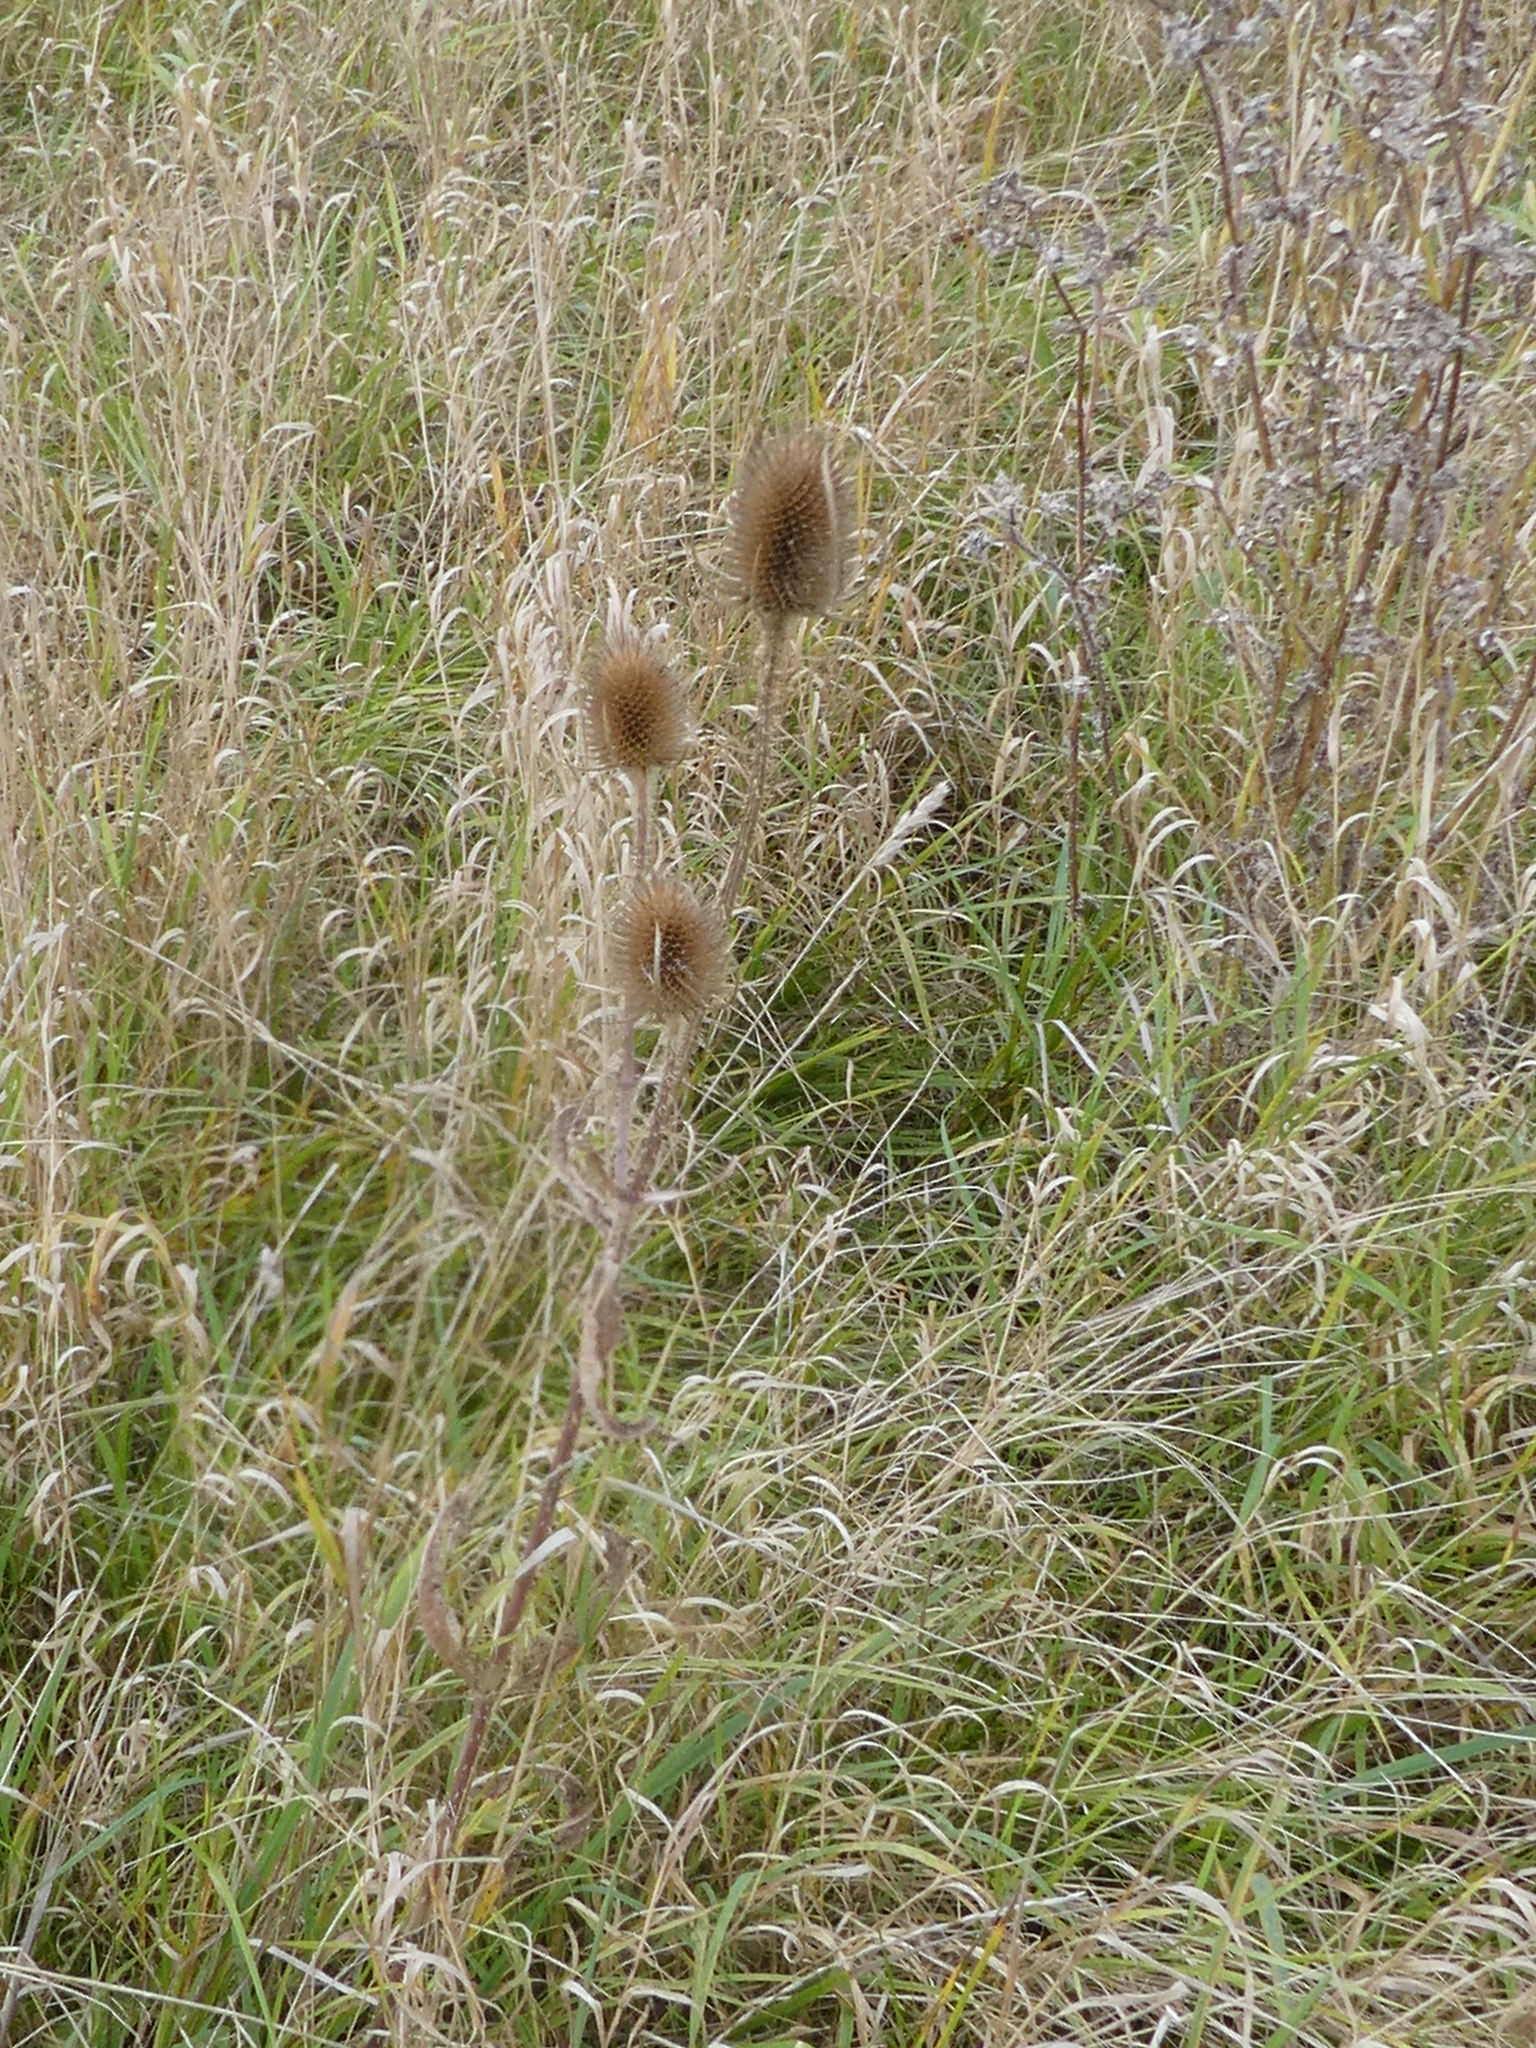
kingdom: Plantae
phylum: Tracheophyta
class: Magnoliopsida
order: Dipsacales
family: Caprifoliaceae
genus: Dipsacus
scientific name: Dipsacus fullonum
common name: Teasel
